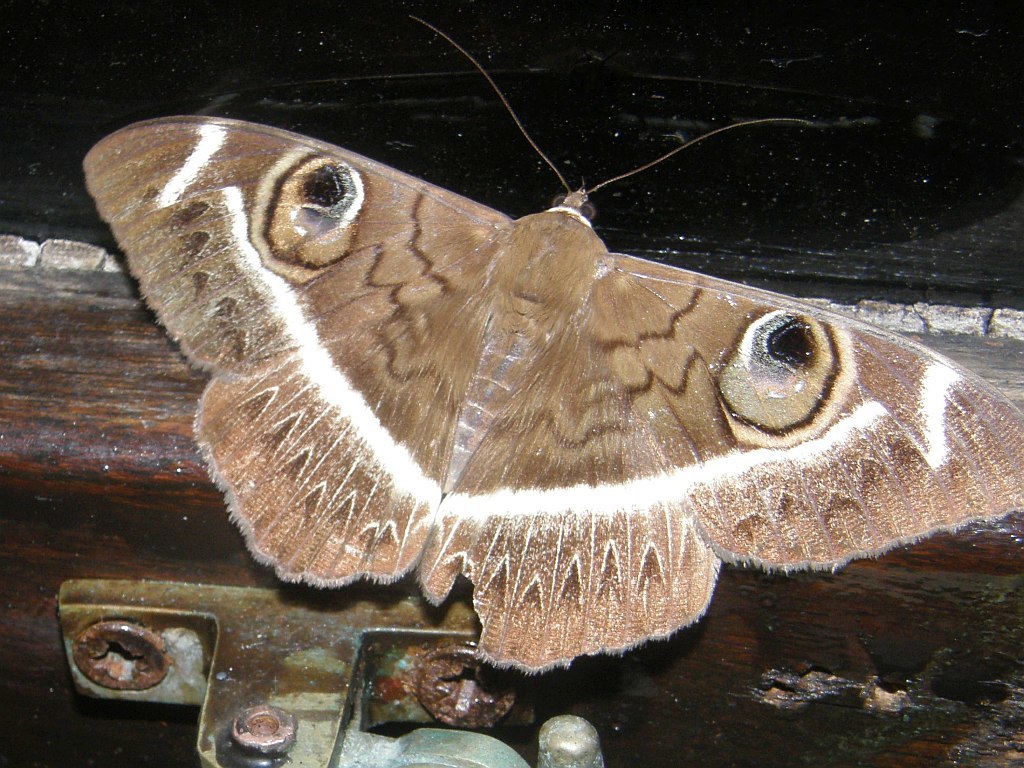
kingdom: Animalia
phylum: Arthropoda
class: Insecta
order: Lepidoptera
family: Erebidae
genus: Cyligramma
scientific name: Cyligramma latona
